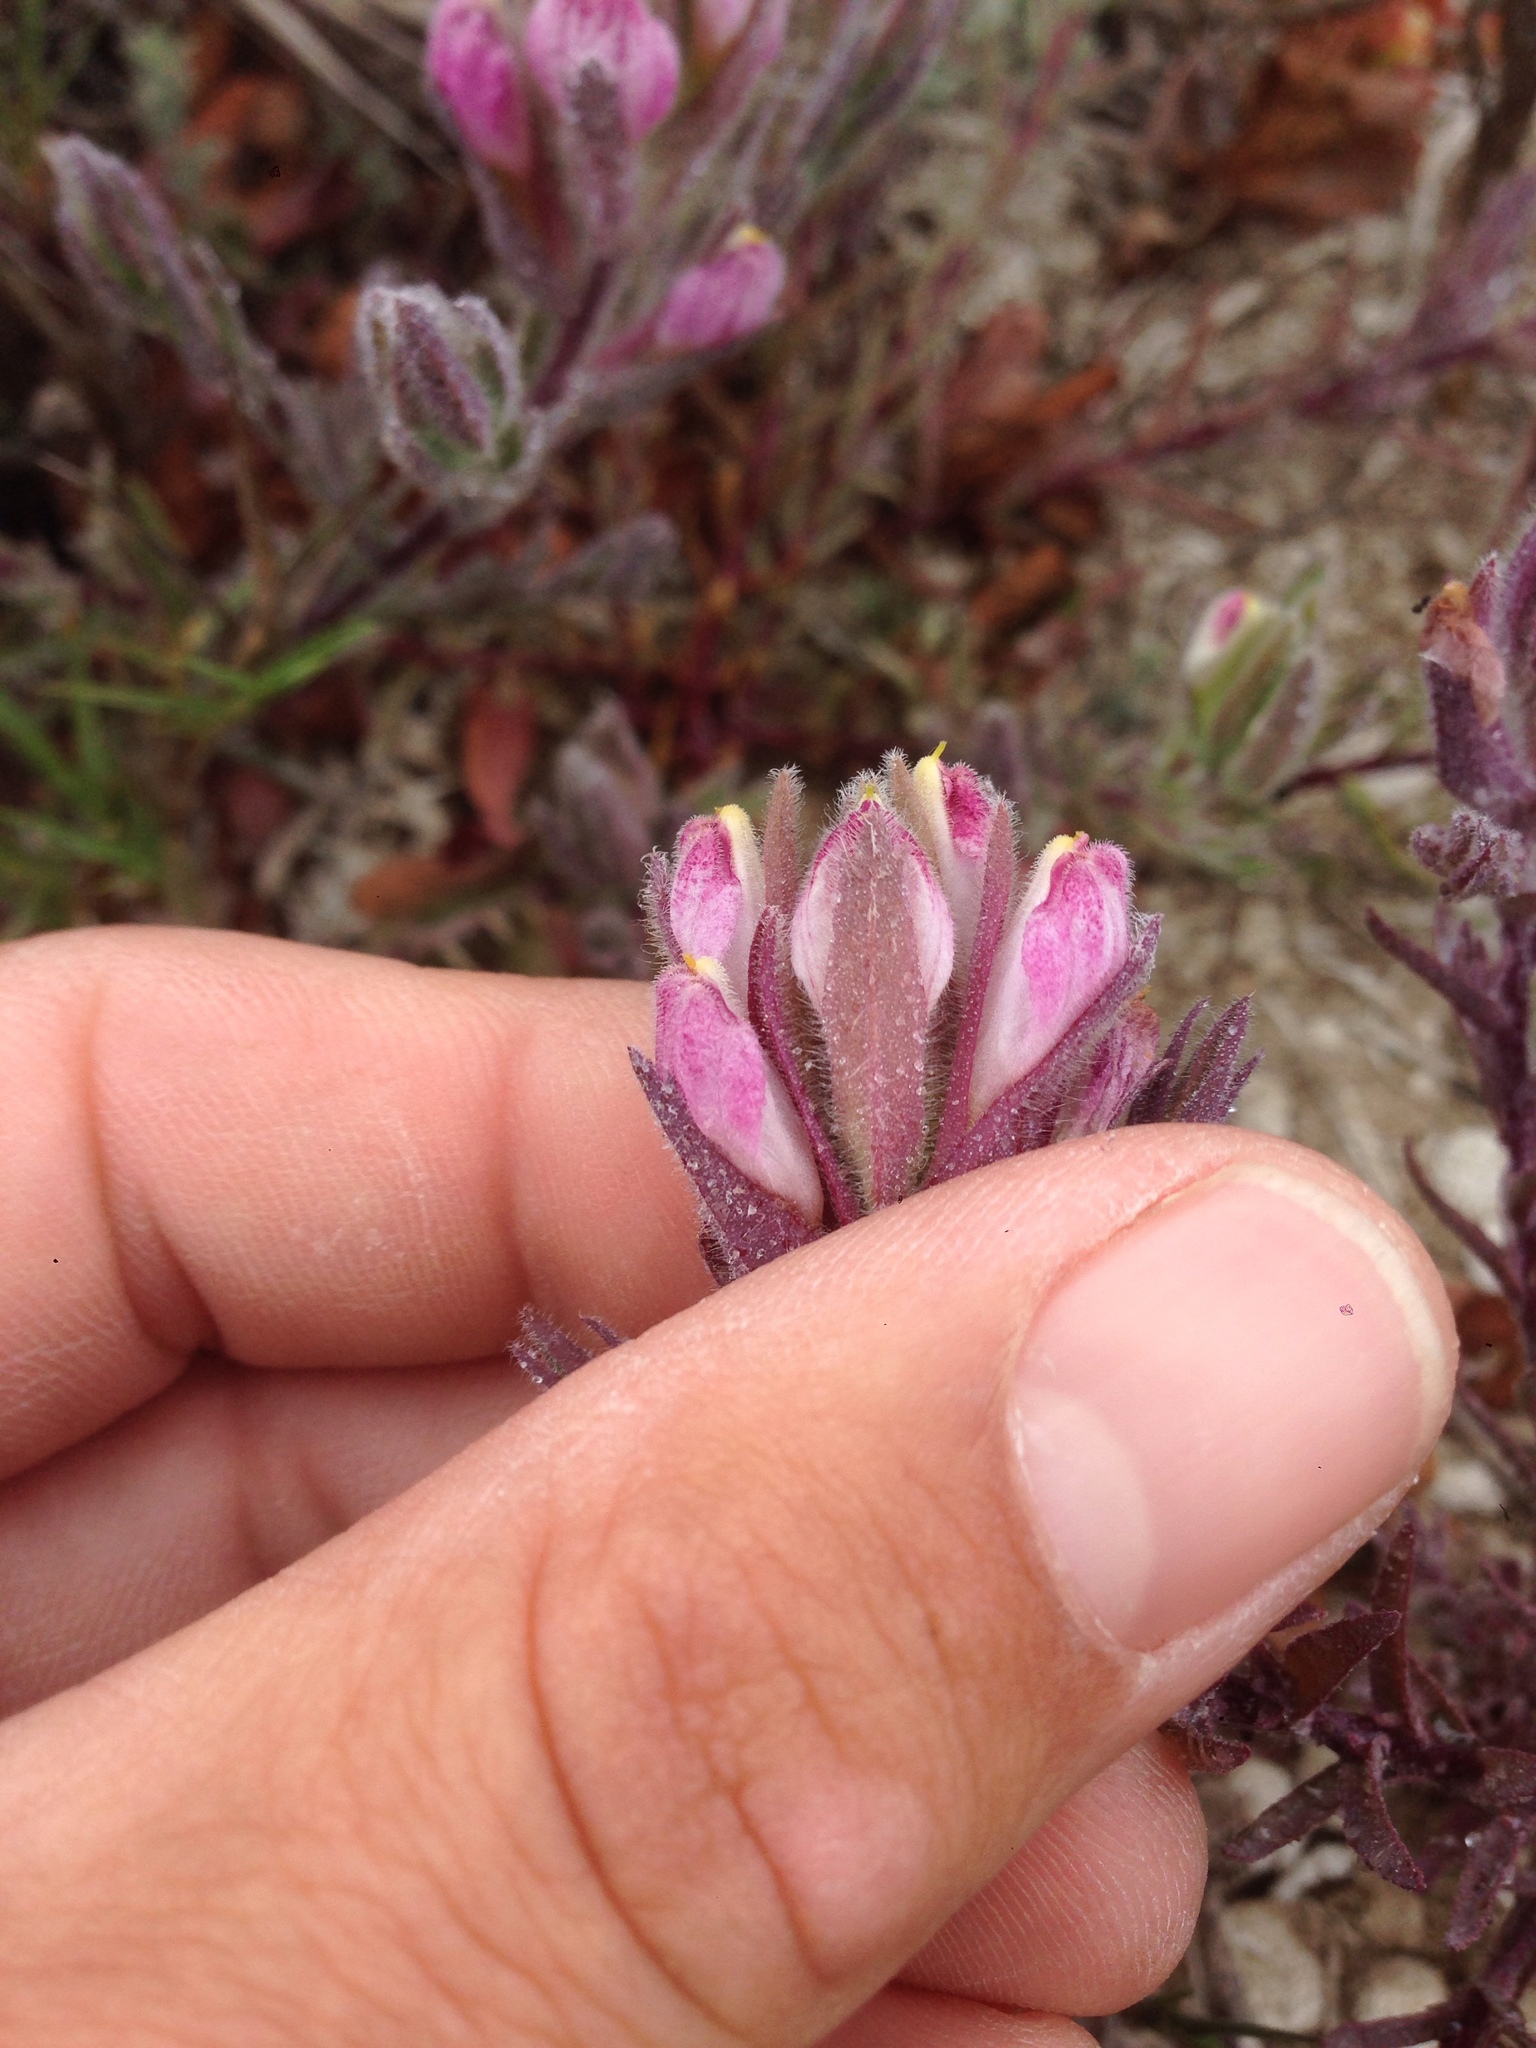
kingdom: Plantae
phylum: Tracheophyta
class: Magnoliopsida
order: Lamiales
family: Orobanchaceae
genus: Chloropyron
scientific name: Chloropyron maritimum
